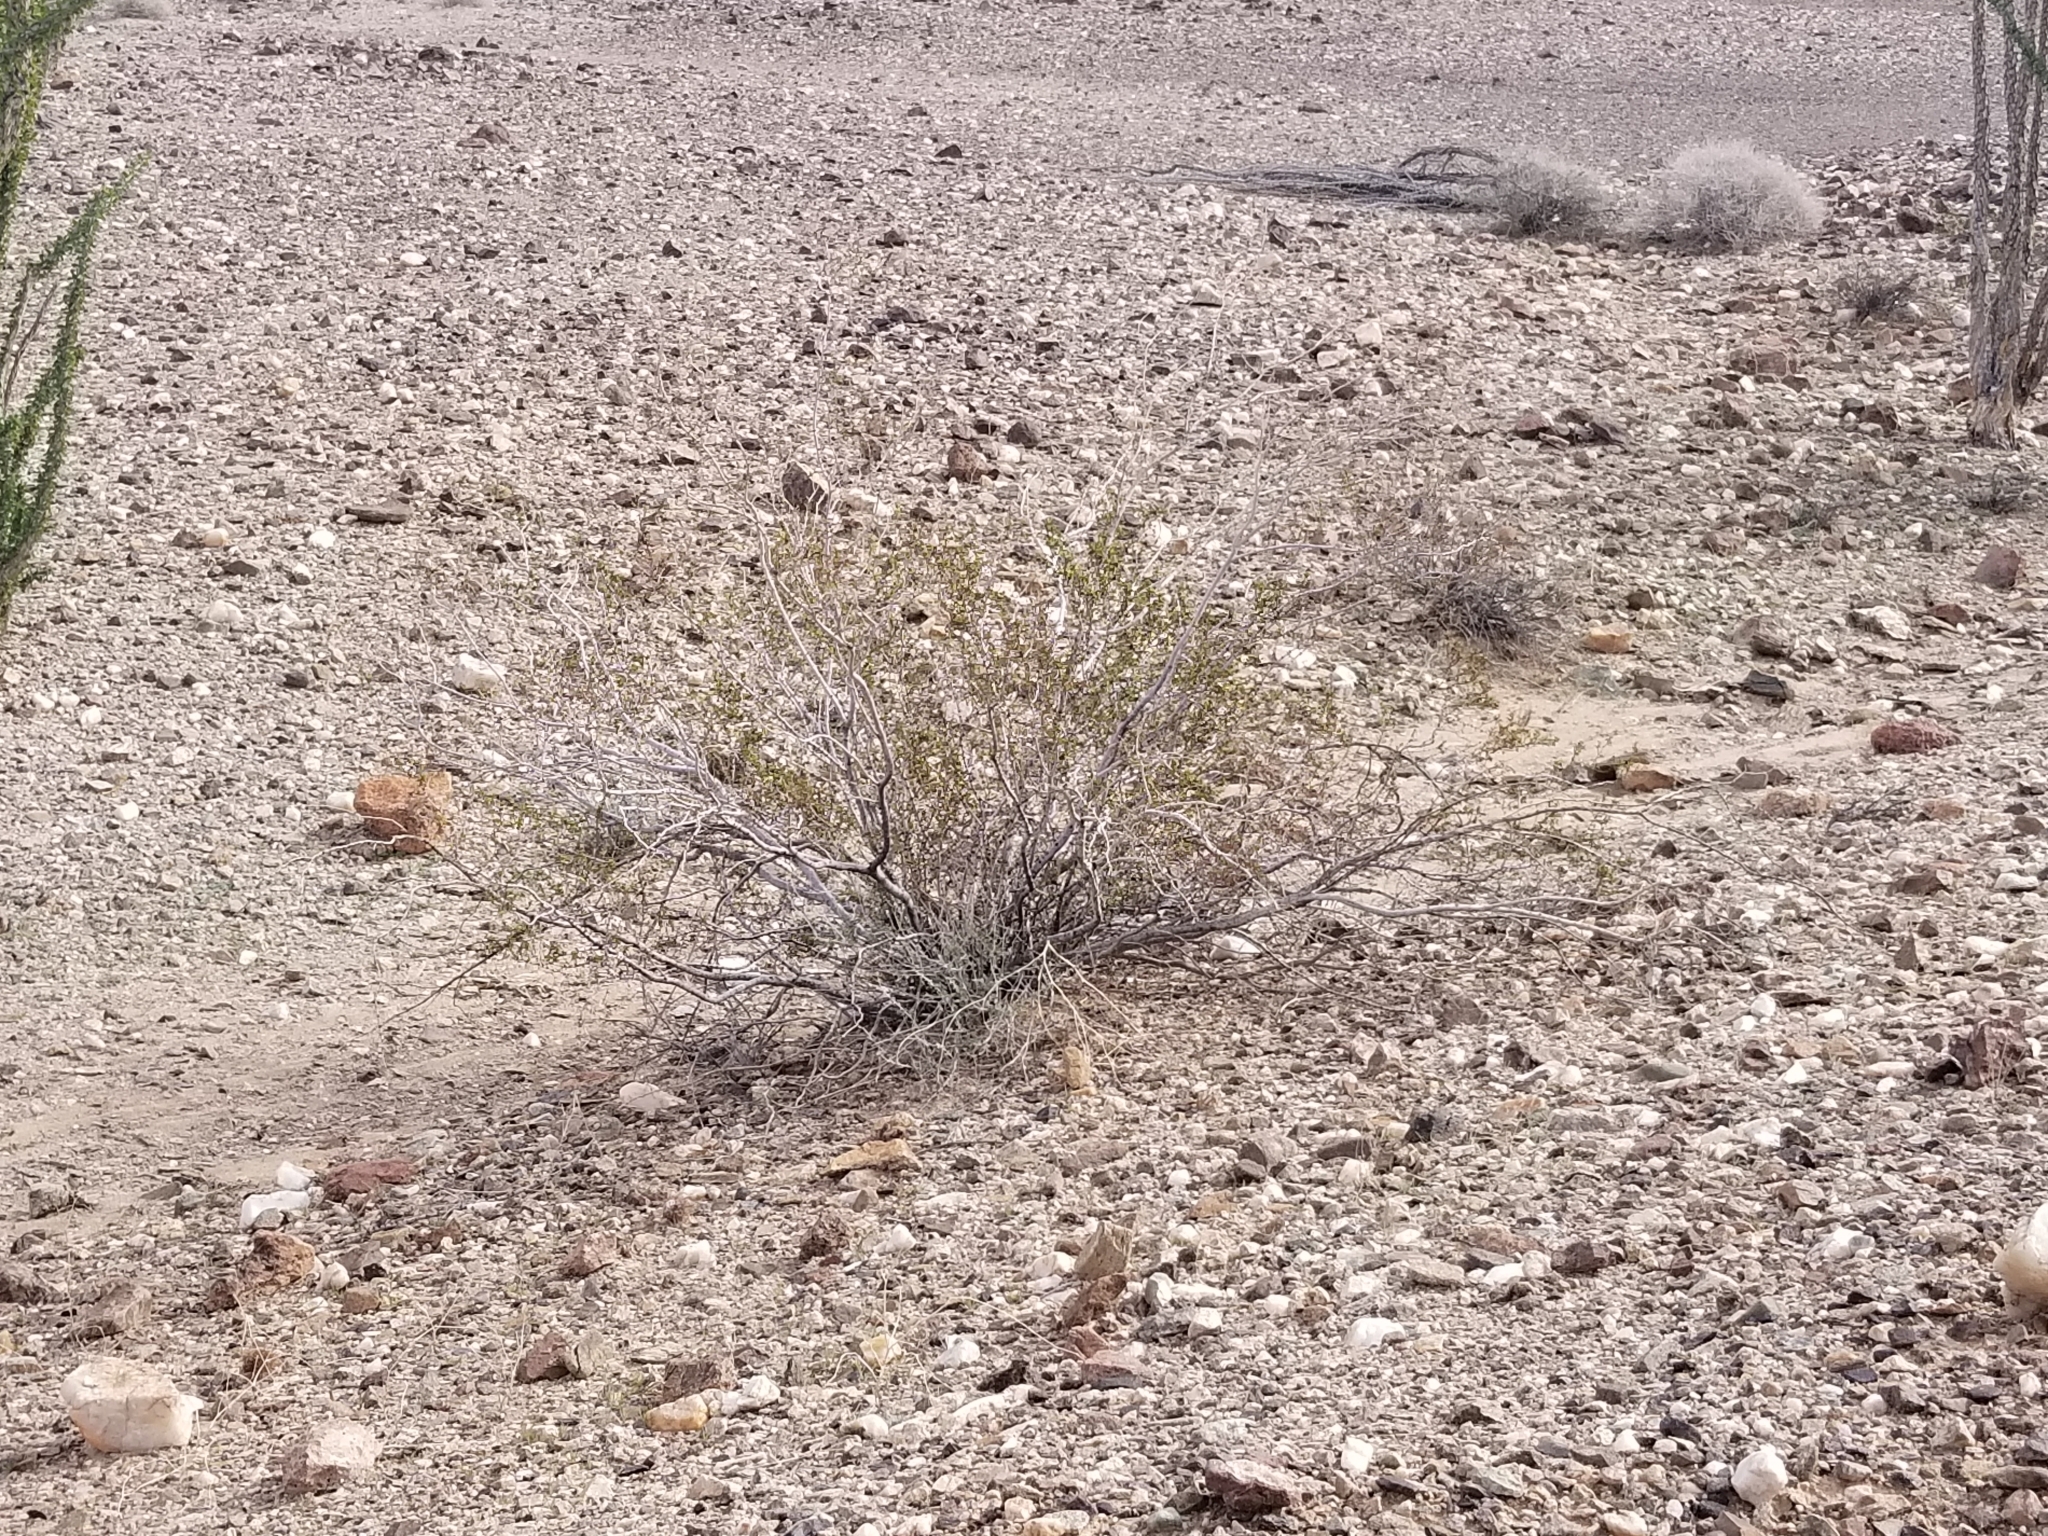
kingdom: Plantae
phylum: Tracheophyta
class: Magnoliopsida
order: Zygophyllales
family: Zygophyllaceae
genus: Larrea
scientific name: Larrea tridentata
